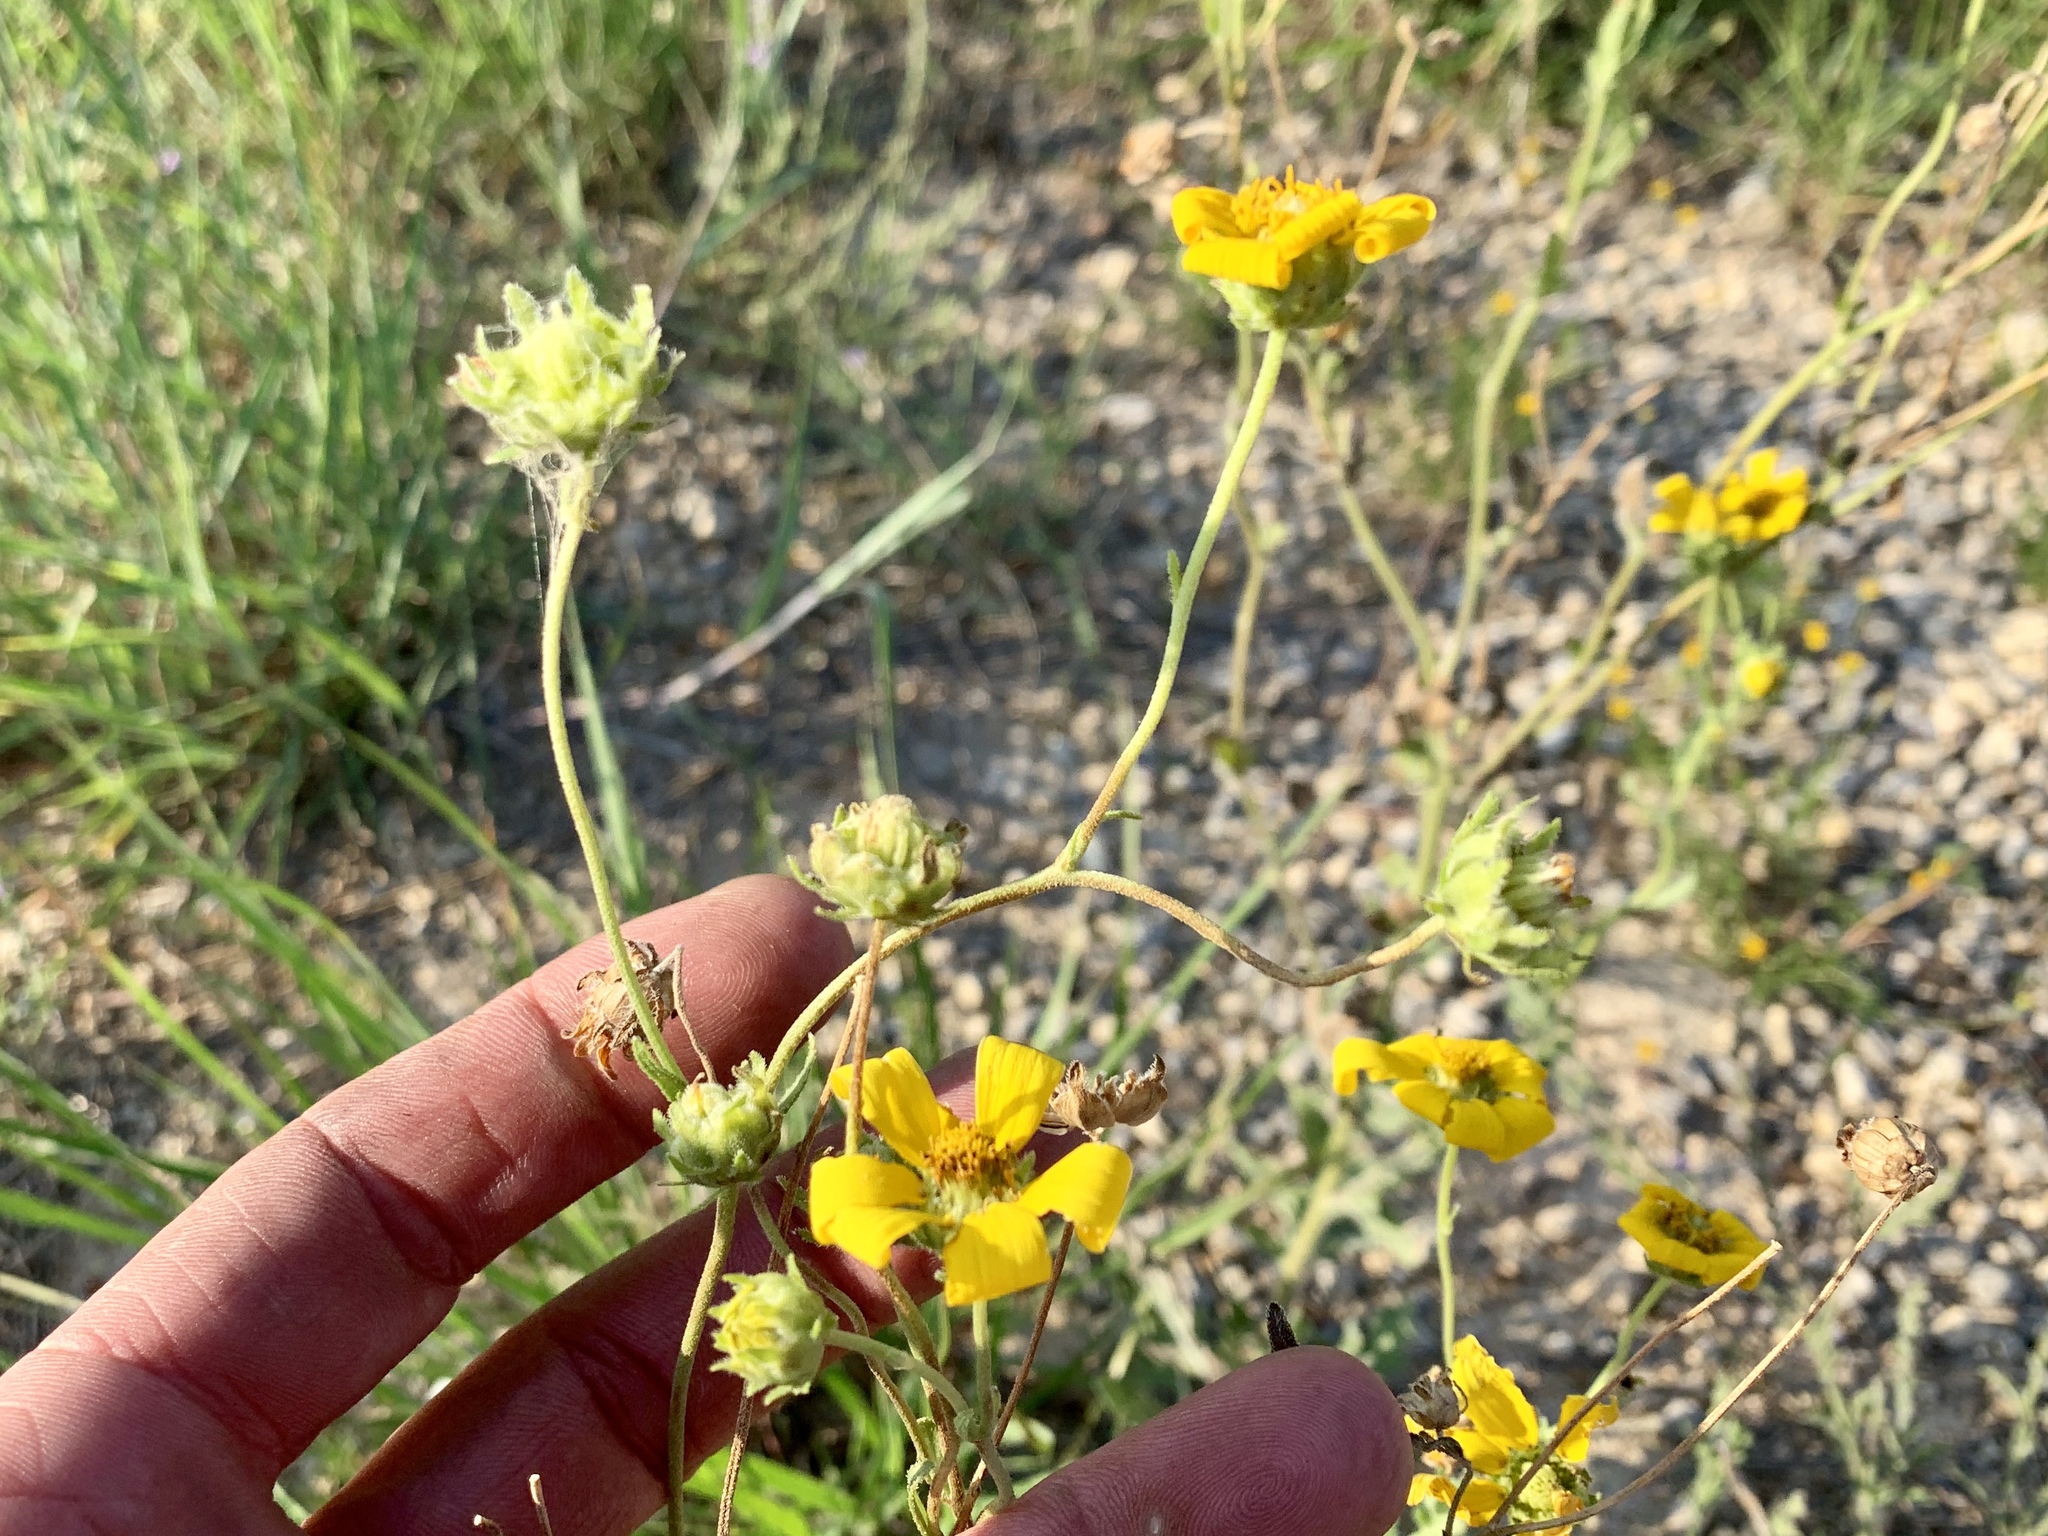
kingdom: Plantae
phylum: Tracheophyta
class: Magnoliopsida
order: Asterales
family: Asteraceae
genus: Engelmannia
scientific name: Engelmannia peristenia
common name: Engelmann's daisy
